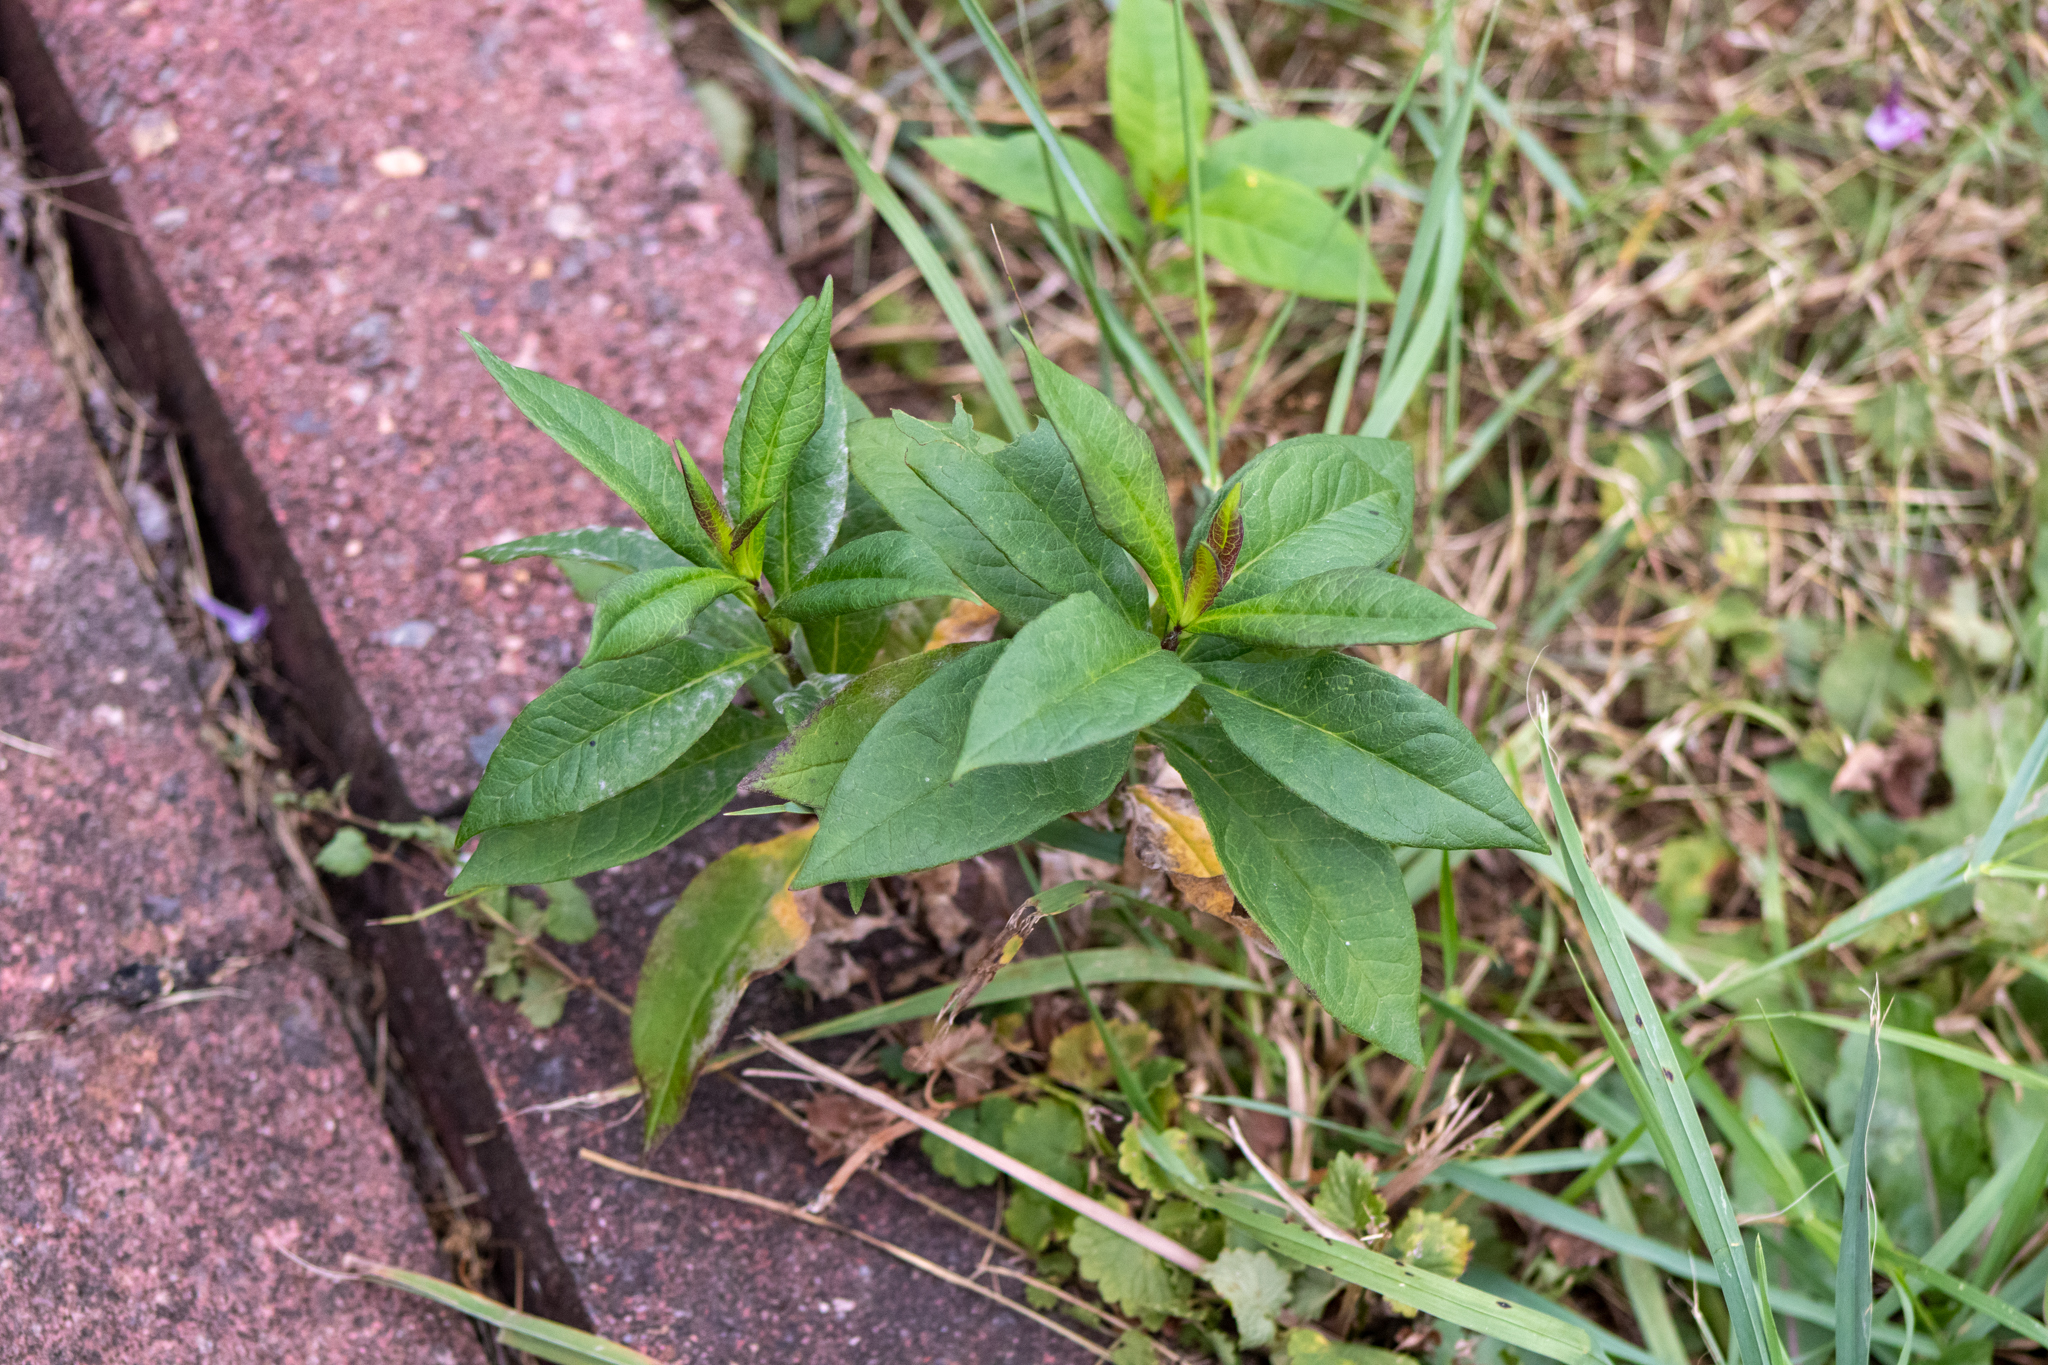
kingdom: Plantae
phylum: Tracheophyta
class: Magnoliopsida
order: Ericales
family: Polemoniaceae
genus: Phlox
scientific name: Phlox paniculata
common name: Fall phlox
